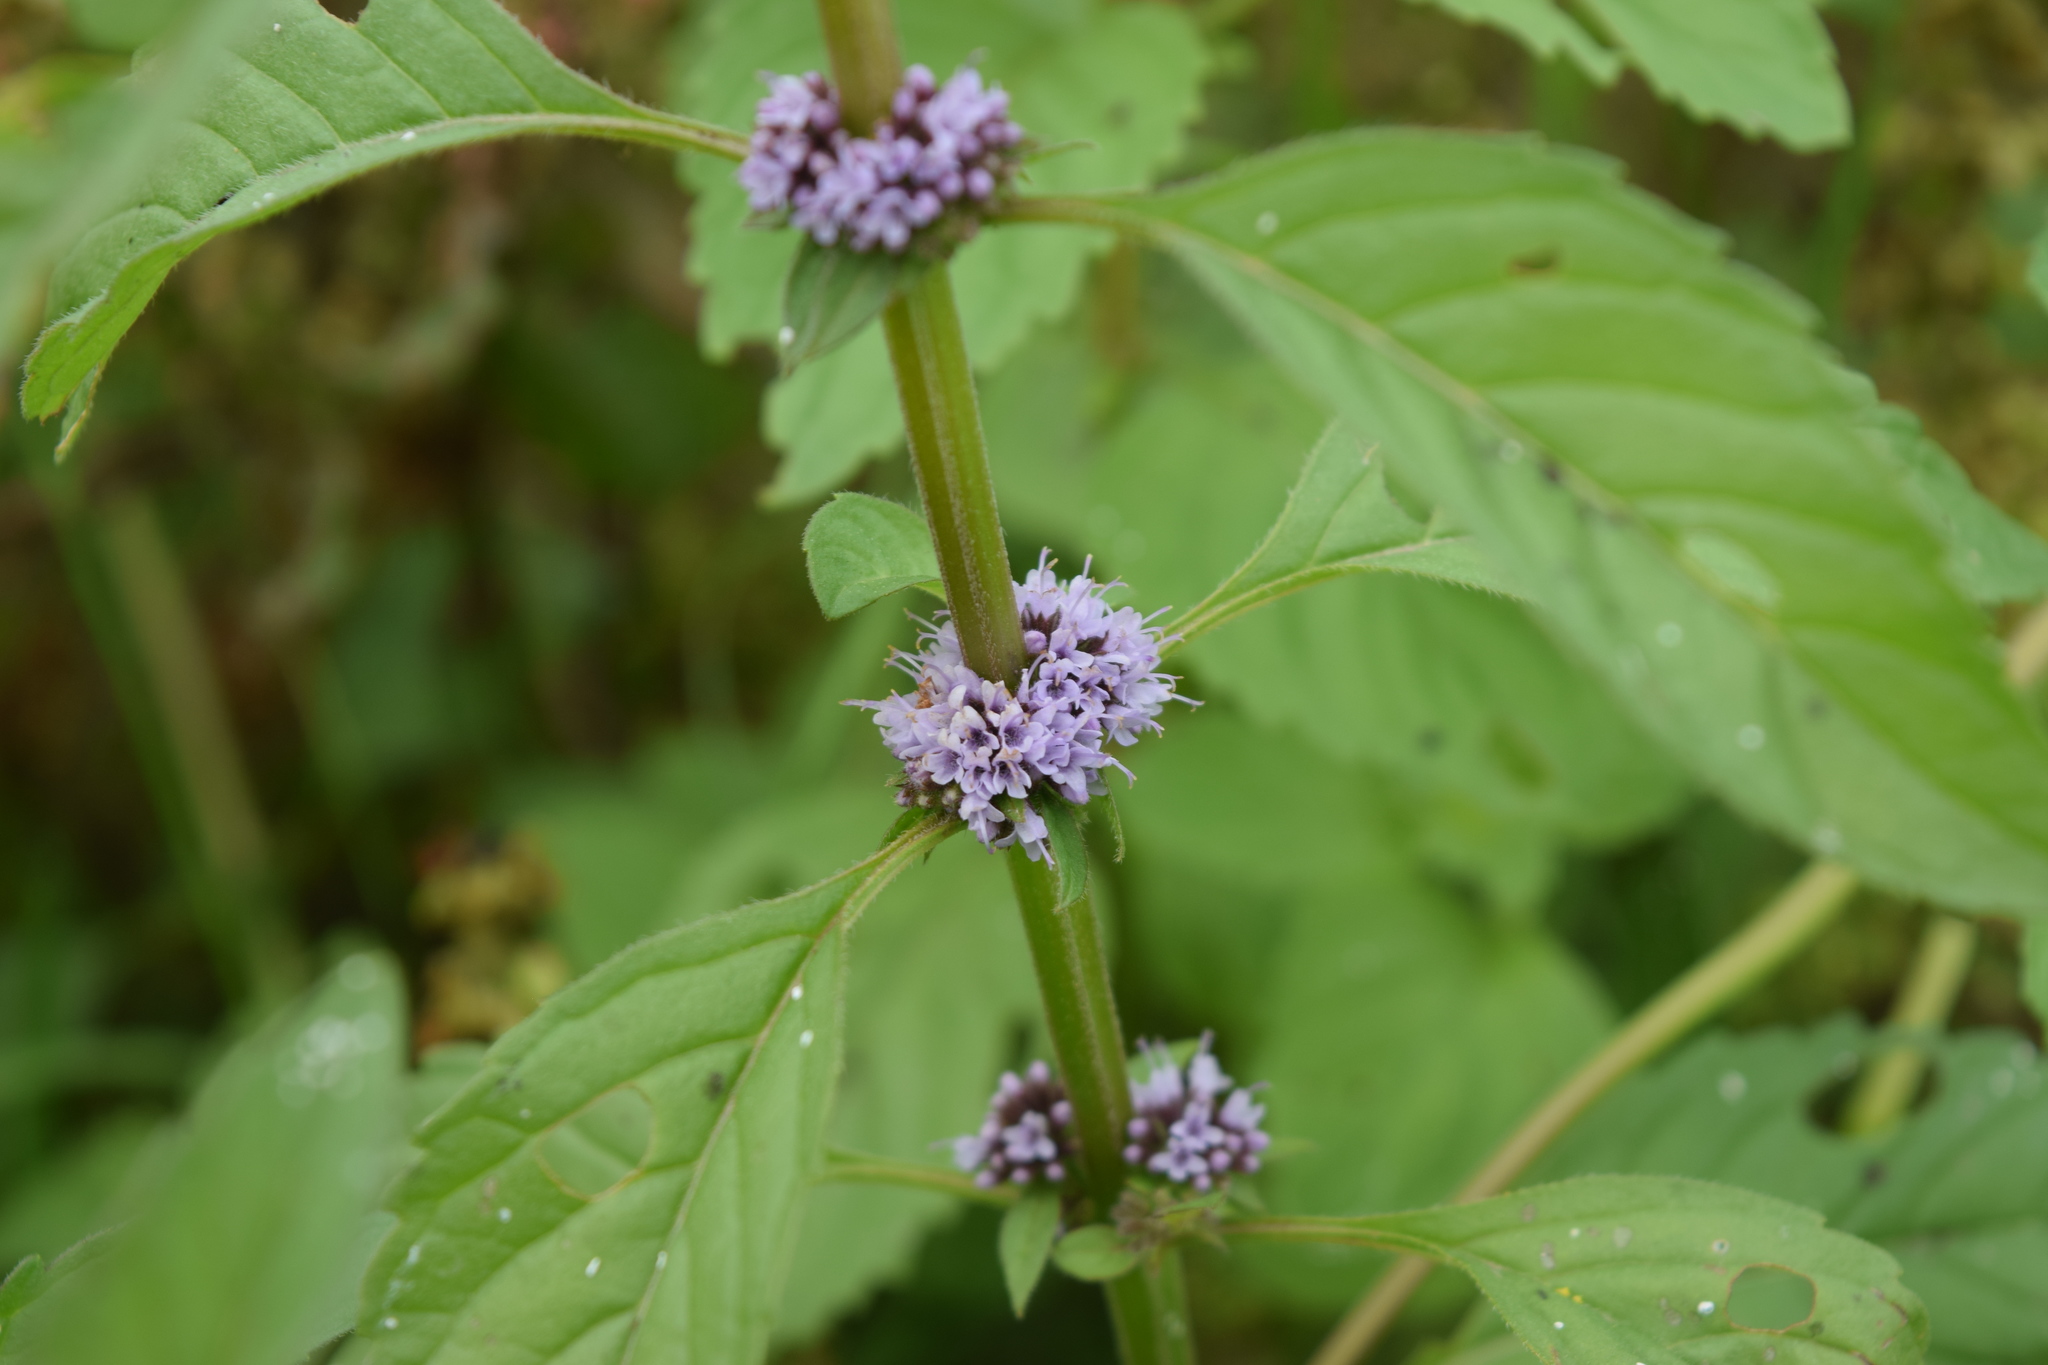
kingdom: Plantae
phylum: Tracheophyta
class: Magnoliopsida
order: Lamiales
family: Lamiaceae
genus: Mentha
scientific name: Mentha arvensis
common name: Corn mint
